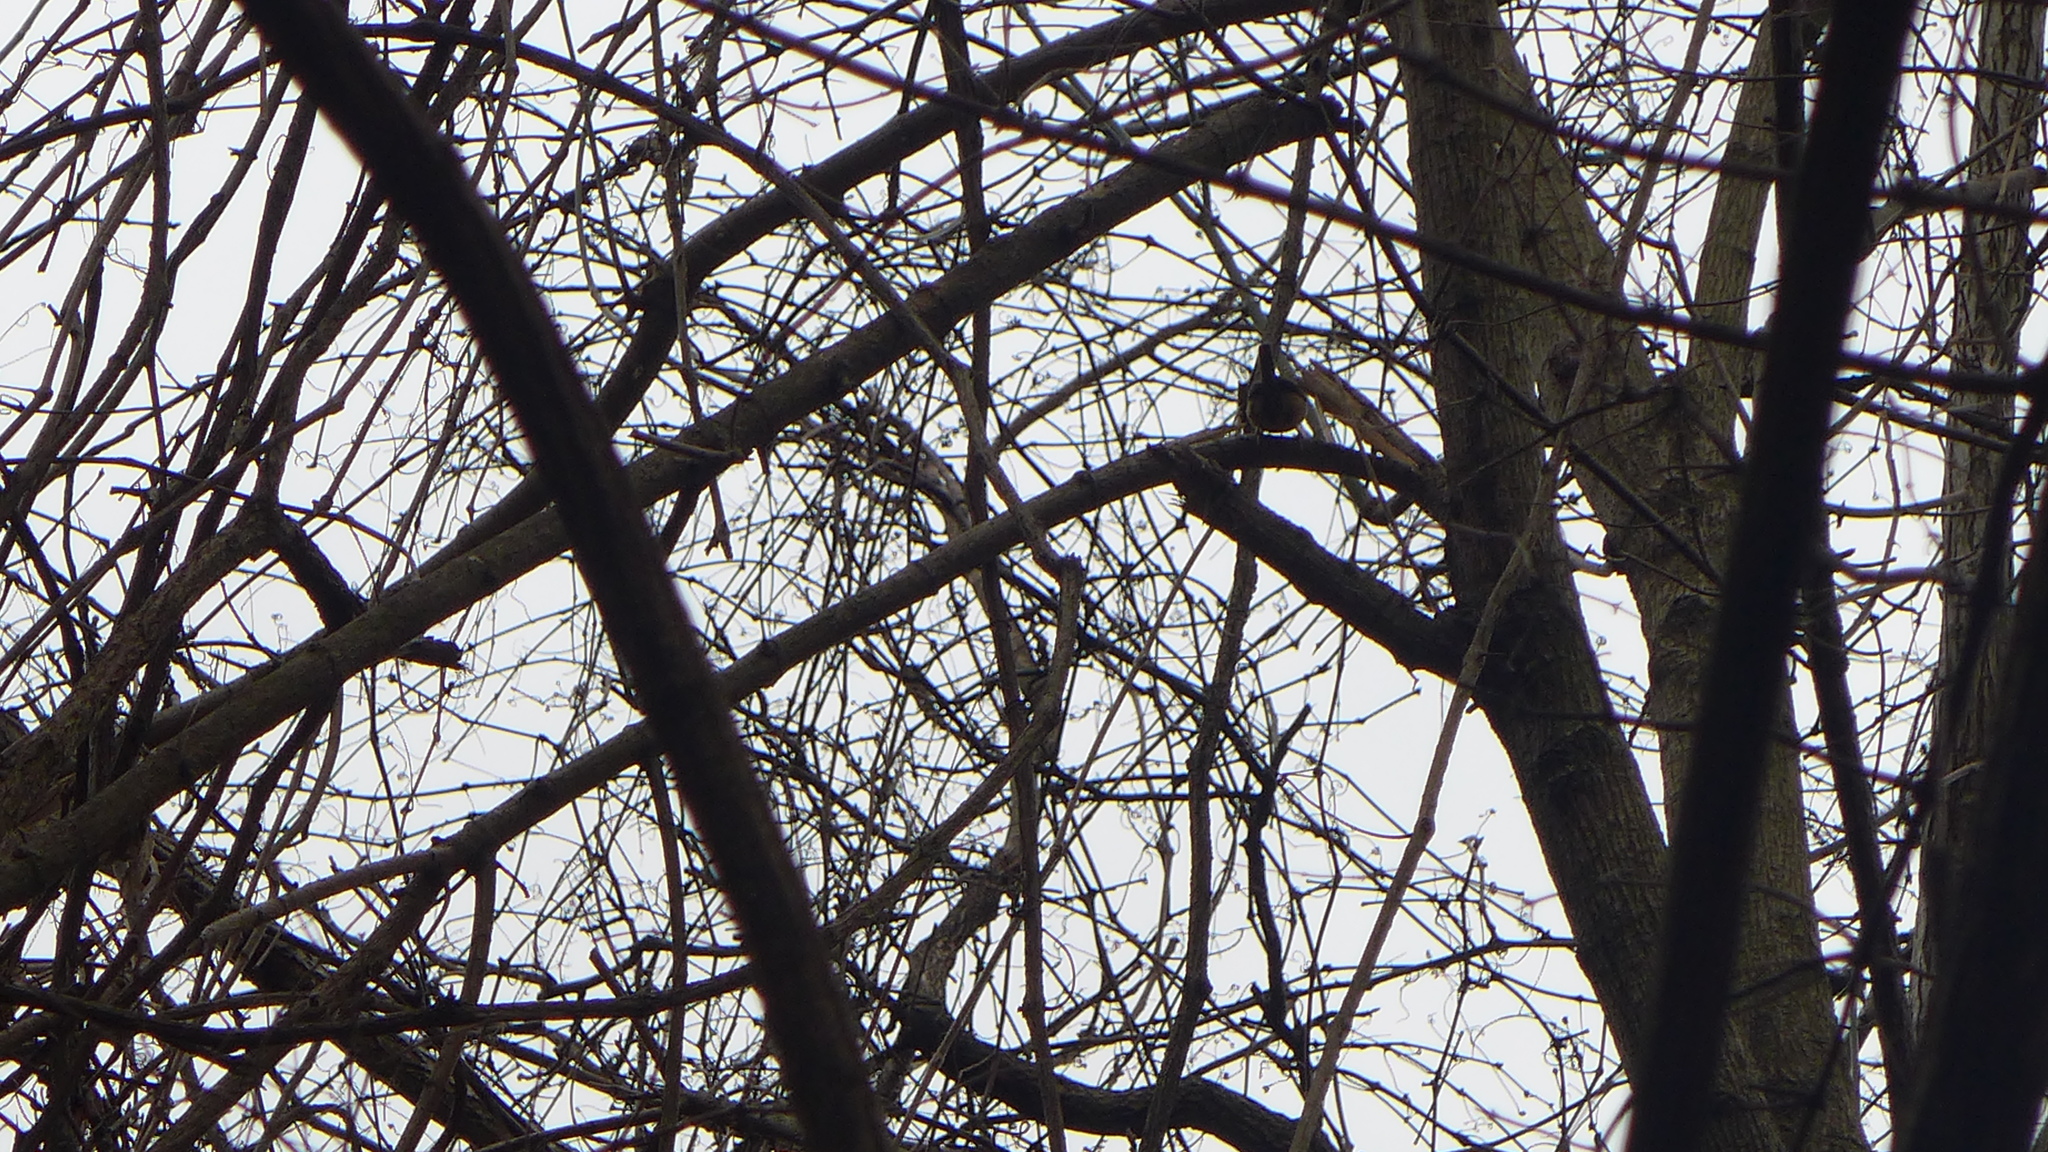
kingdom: Animalia
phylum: Chordata
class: Aves
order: Passeriformes
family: Troglodytidae
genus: Thryothorus
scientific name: Thryothorus ludovicianus
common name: Carolina wren
